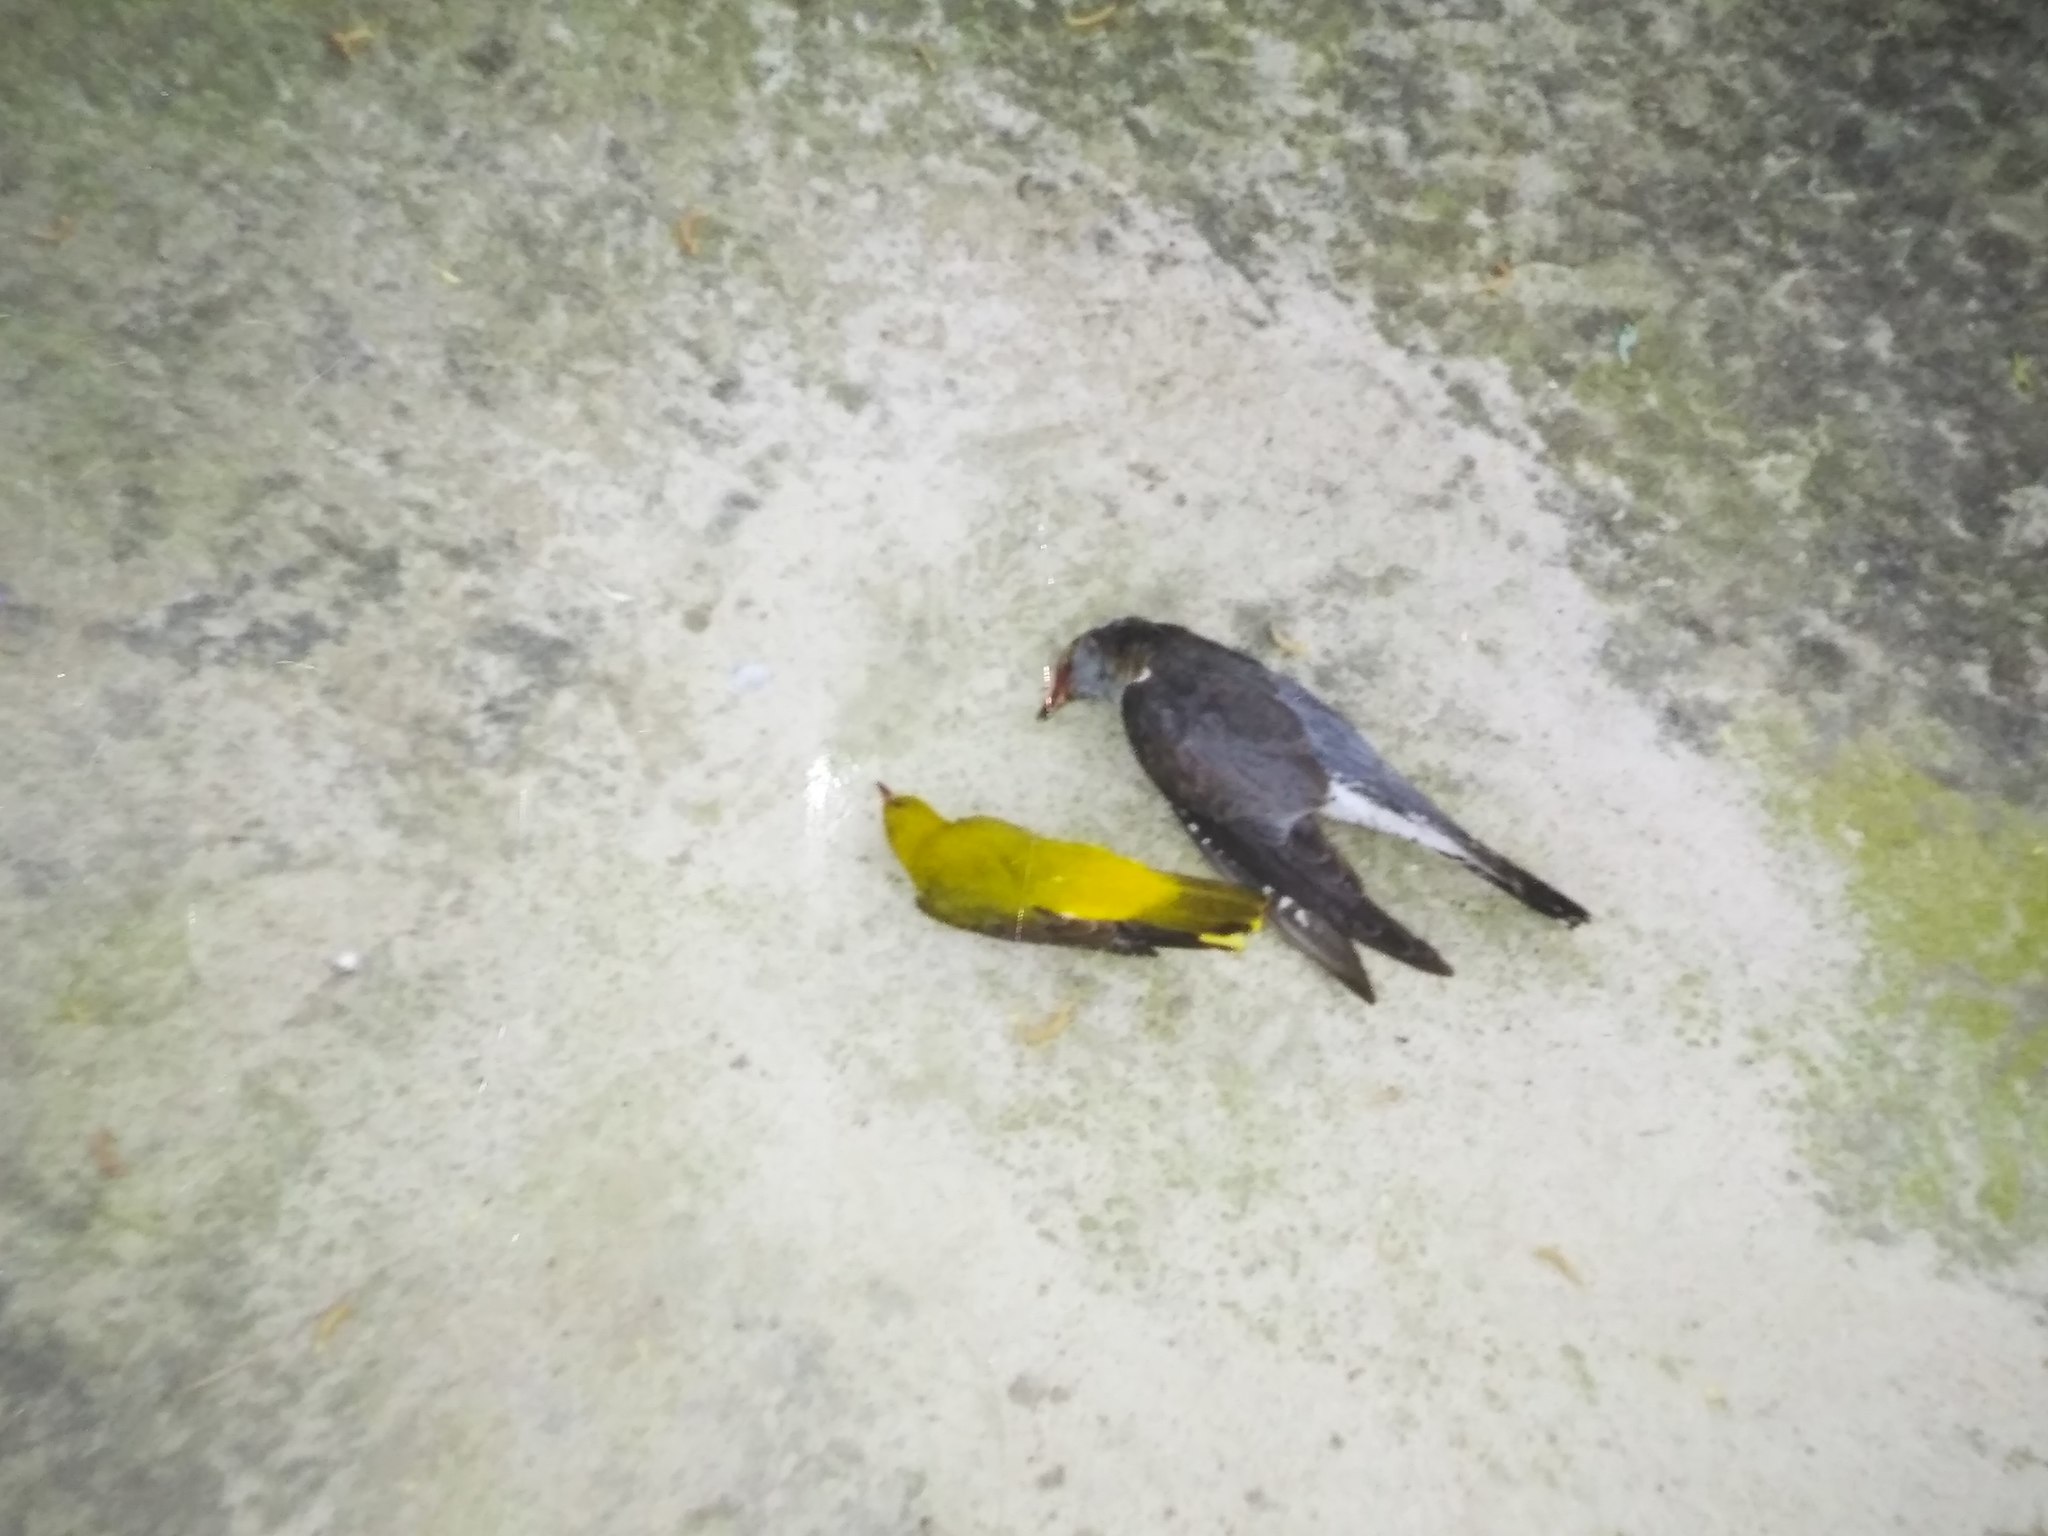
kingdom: Animalia
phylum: Chordata
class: Aves
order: Cuculiformes
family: Cuculidae
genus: Cuculus
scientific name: Cuculus canorus
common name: Common cuckoo
